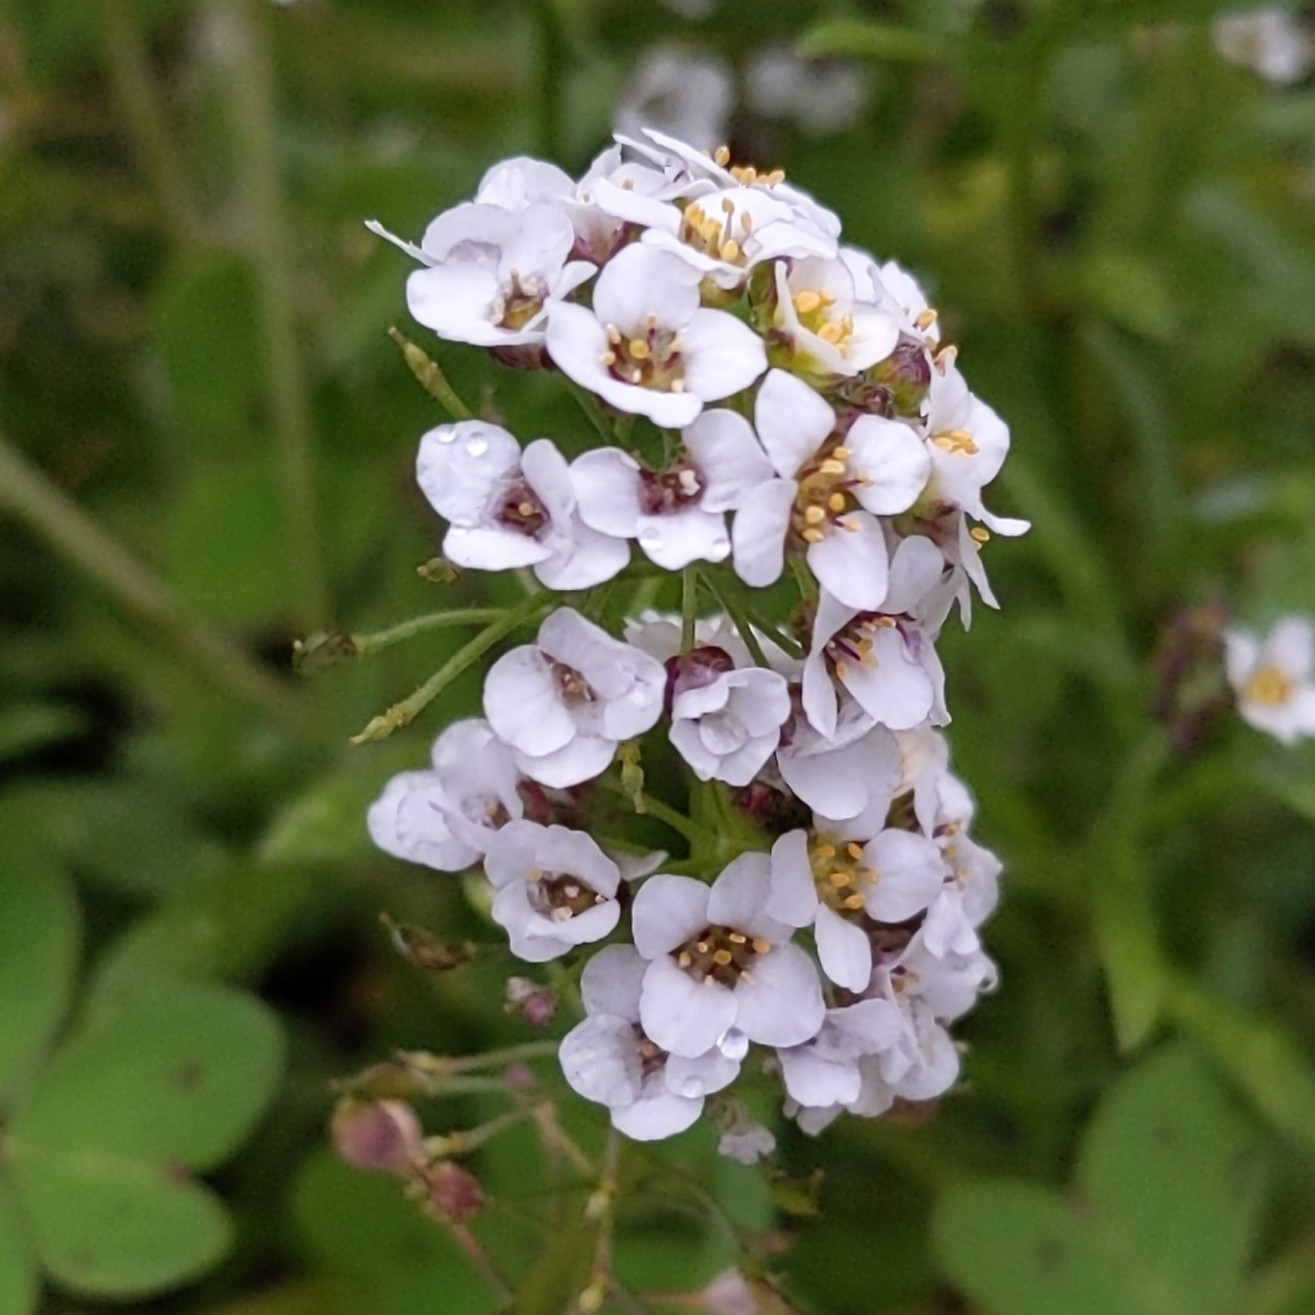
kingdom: Plantae
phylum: Tracheophyta
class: Magnoliopsida
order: Brassicales
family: Brassicaceae
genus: Lobularia
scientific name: Lobularia maritima
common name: Sweet alison
